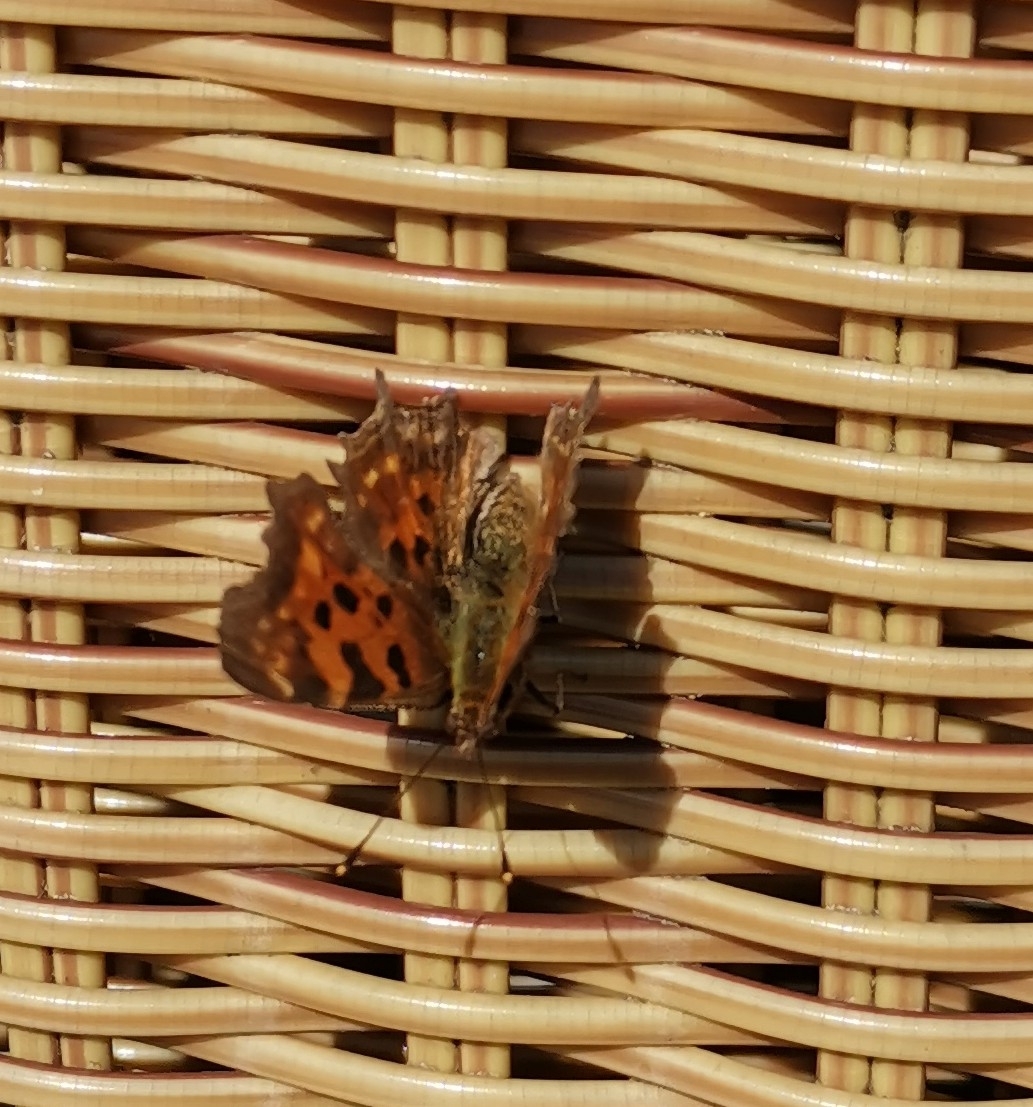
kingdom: Animalia
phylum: Arthropoda
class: Insecta
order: Lepidoptera
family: Nymphalidae
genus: Polygonia
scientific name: Polygonia c-album
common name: Comma
